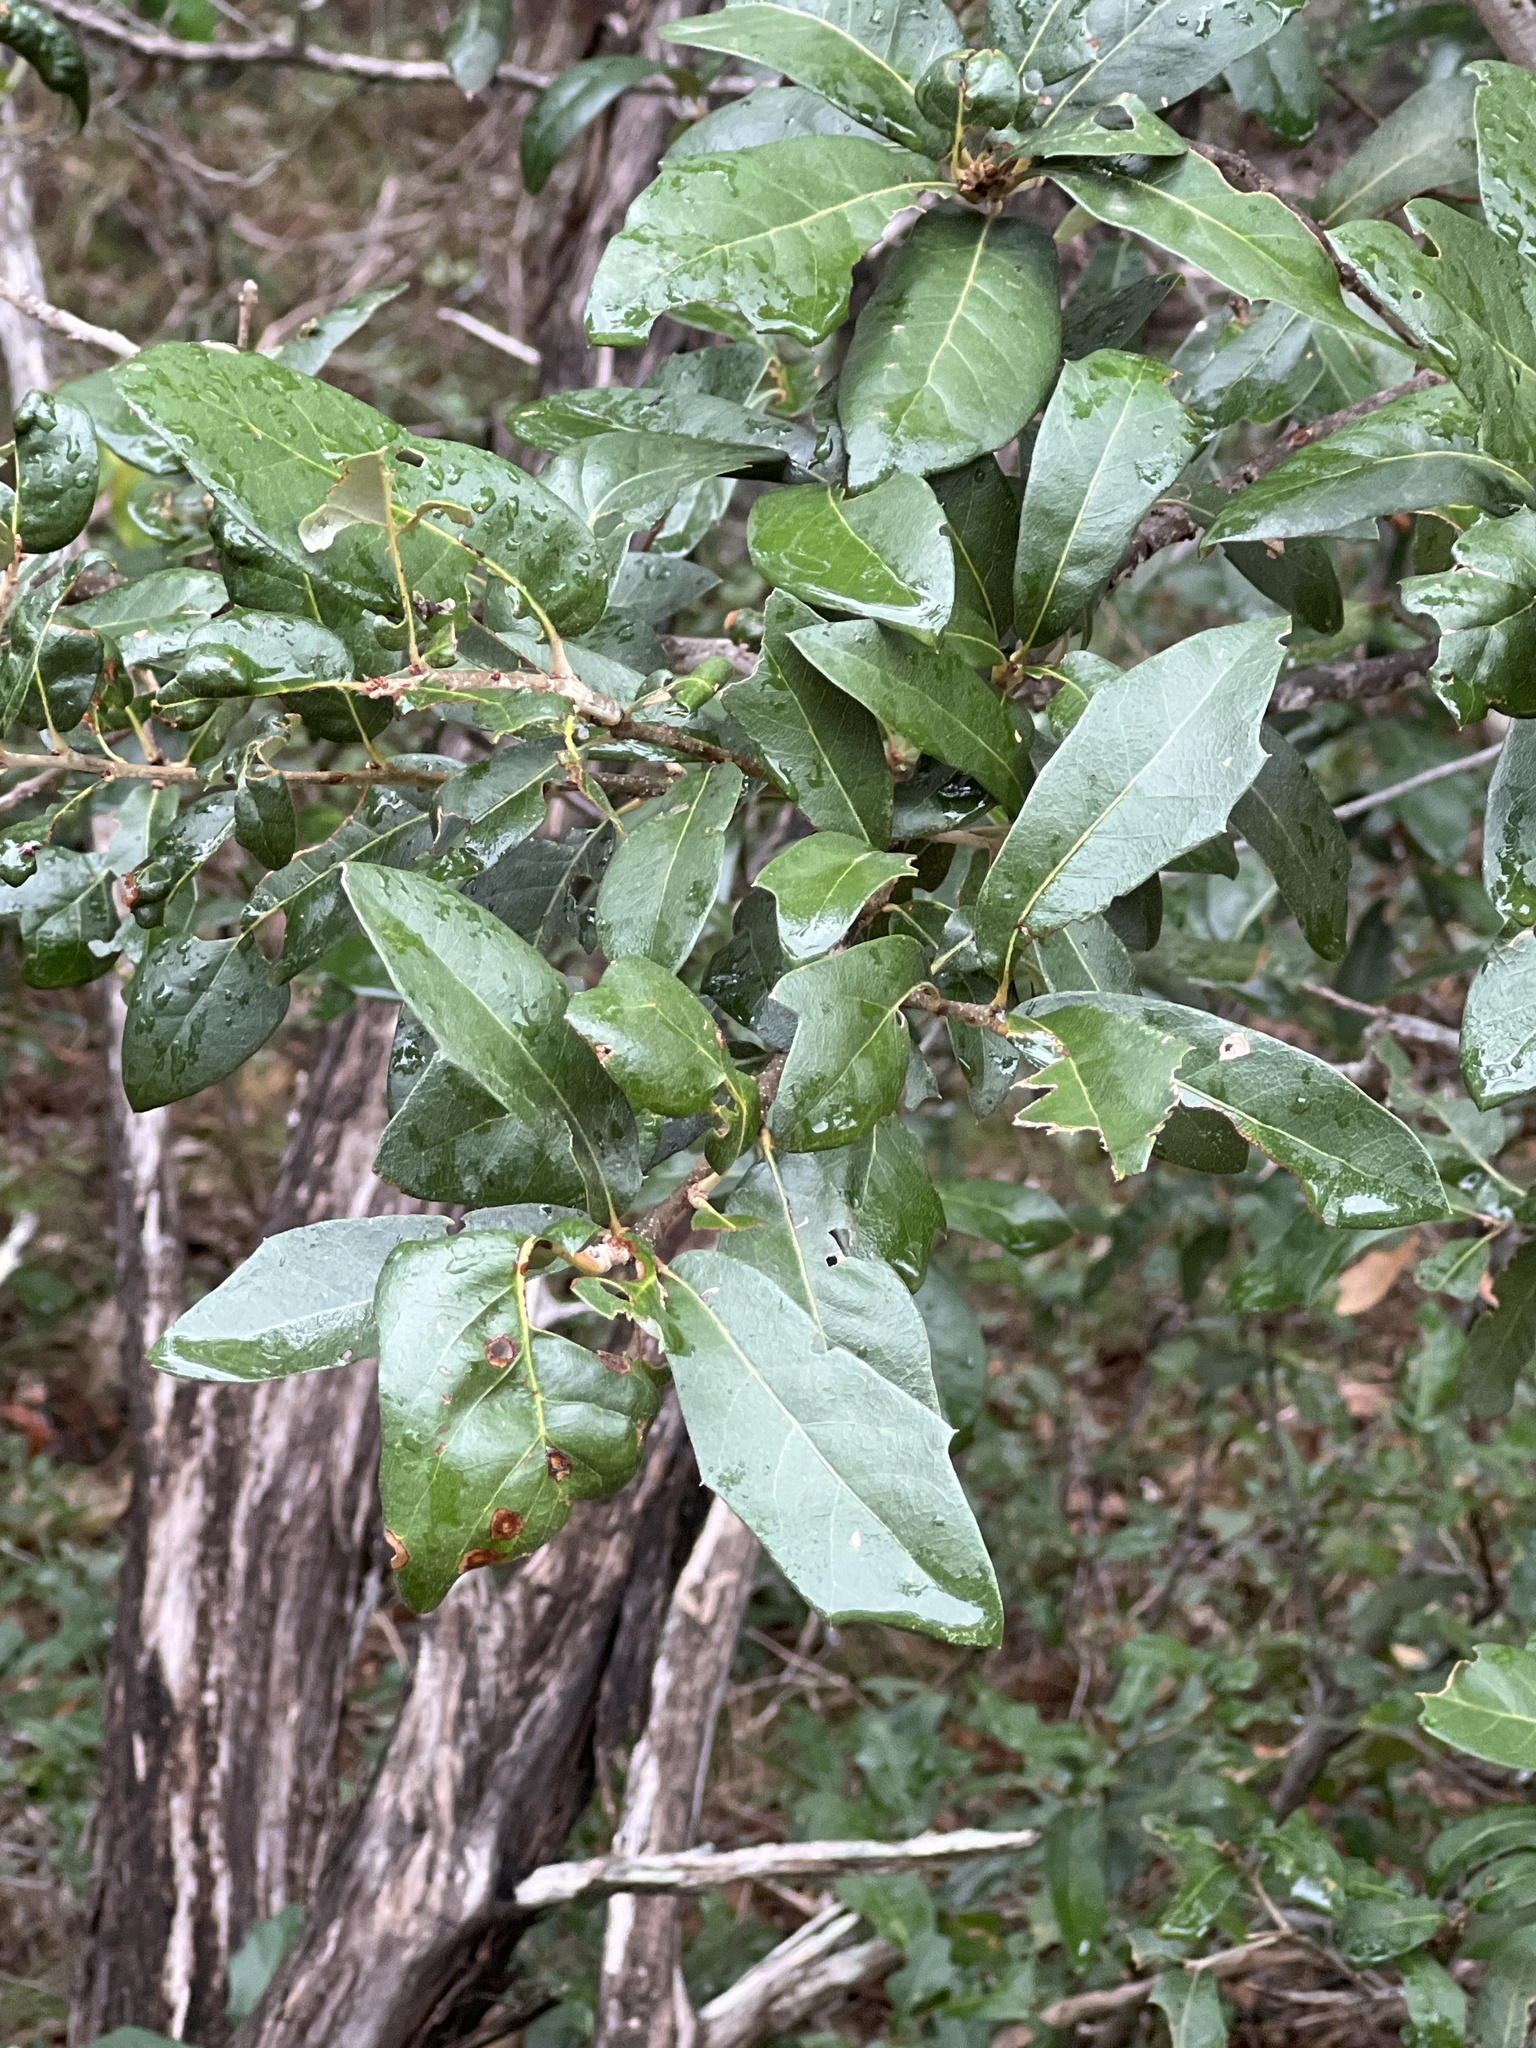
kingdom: Plantae
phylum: Tracheophyta
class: Magnoliopsida
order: Fagales
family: Fagaceae
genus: Quercus
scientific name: Quercus fusiformis
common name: Texas live oak
